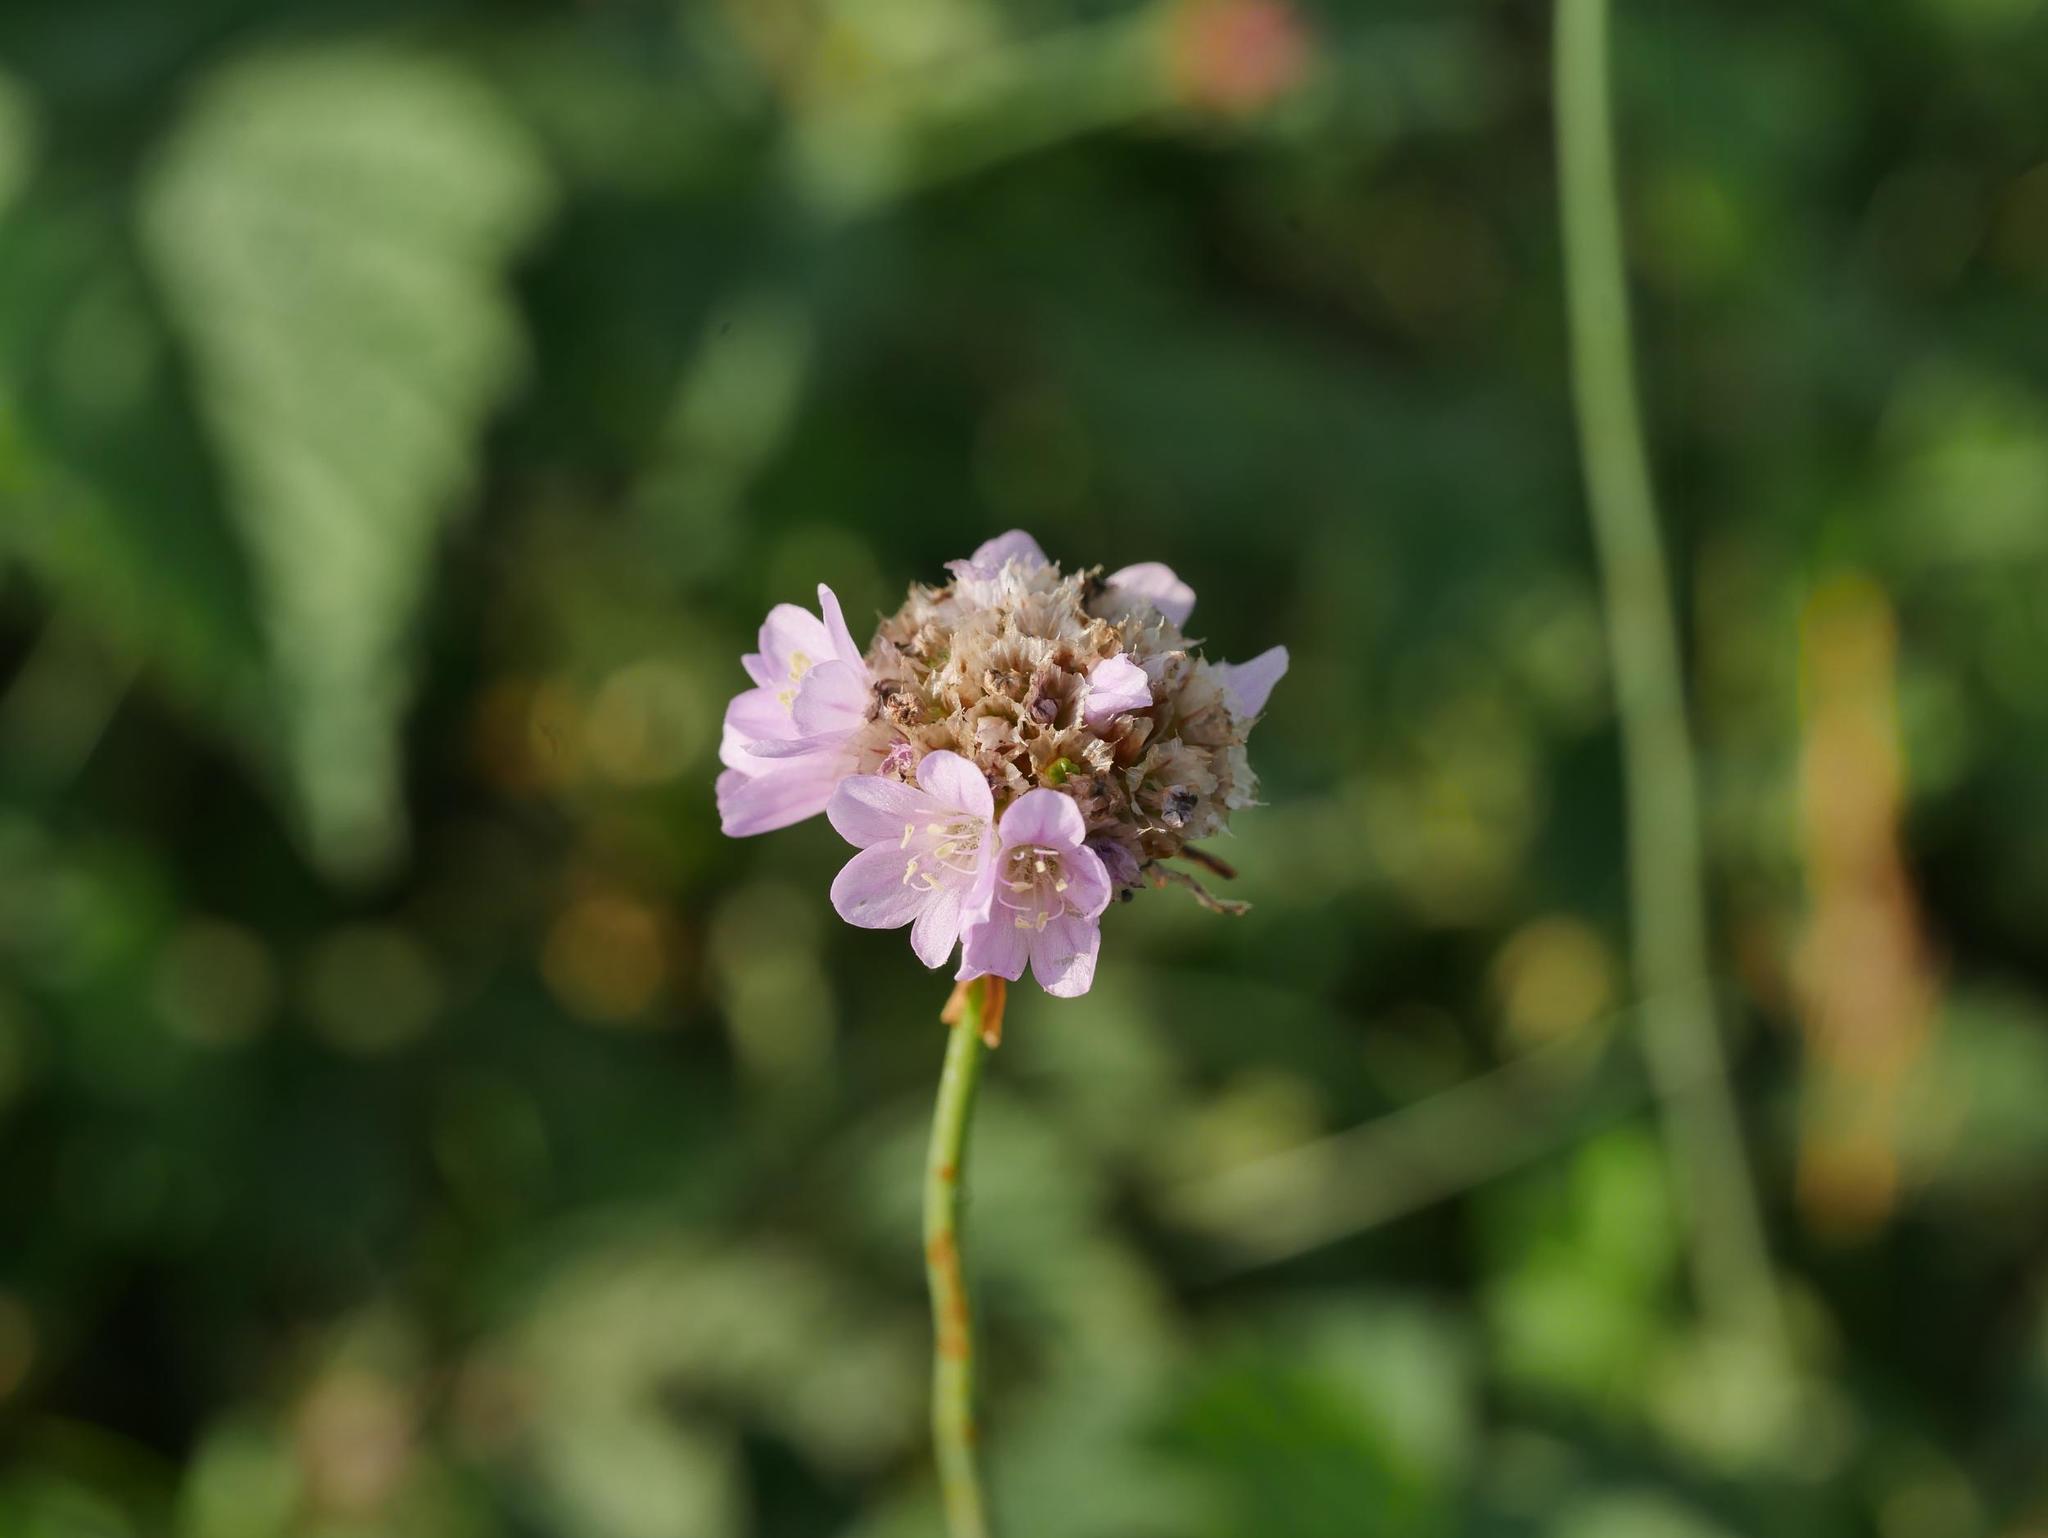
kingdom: Plantae
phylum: Tracheophyta
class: Magnoliopsida
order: Caryophyllales
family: Plumbaginaceae
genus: Armeria
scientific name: Armeria maritima
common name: Thrift
